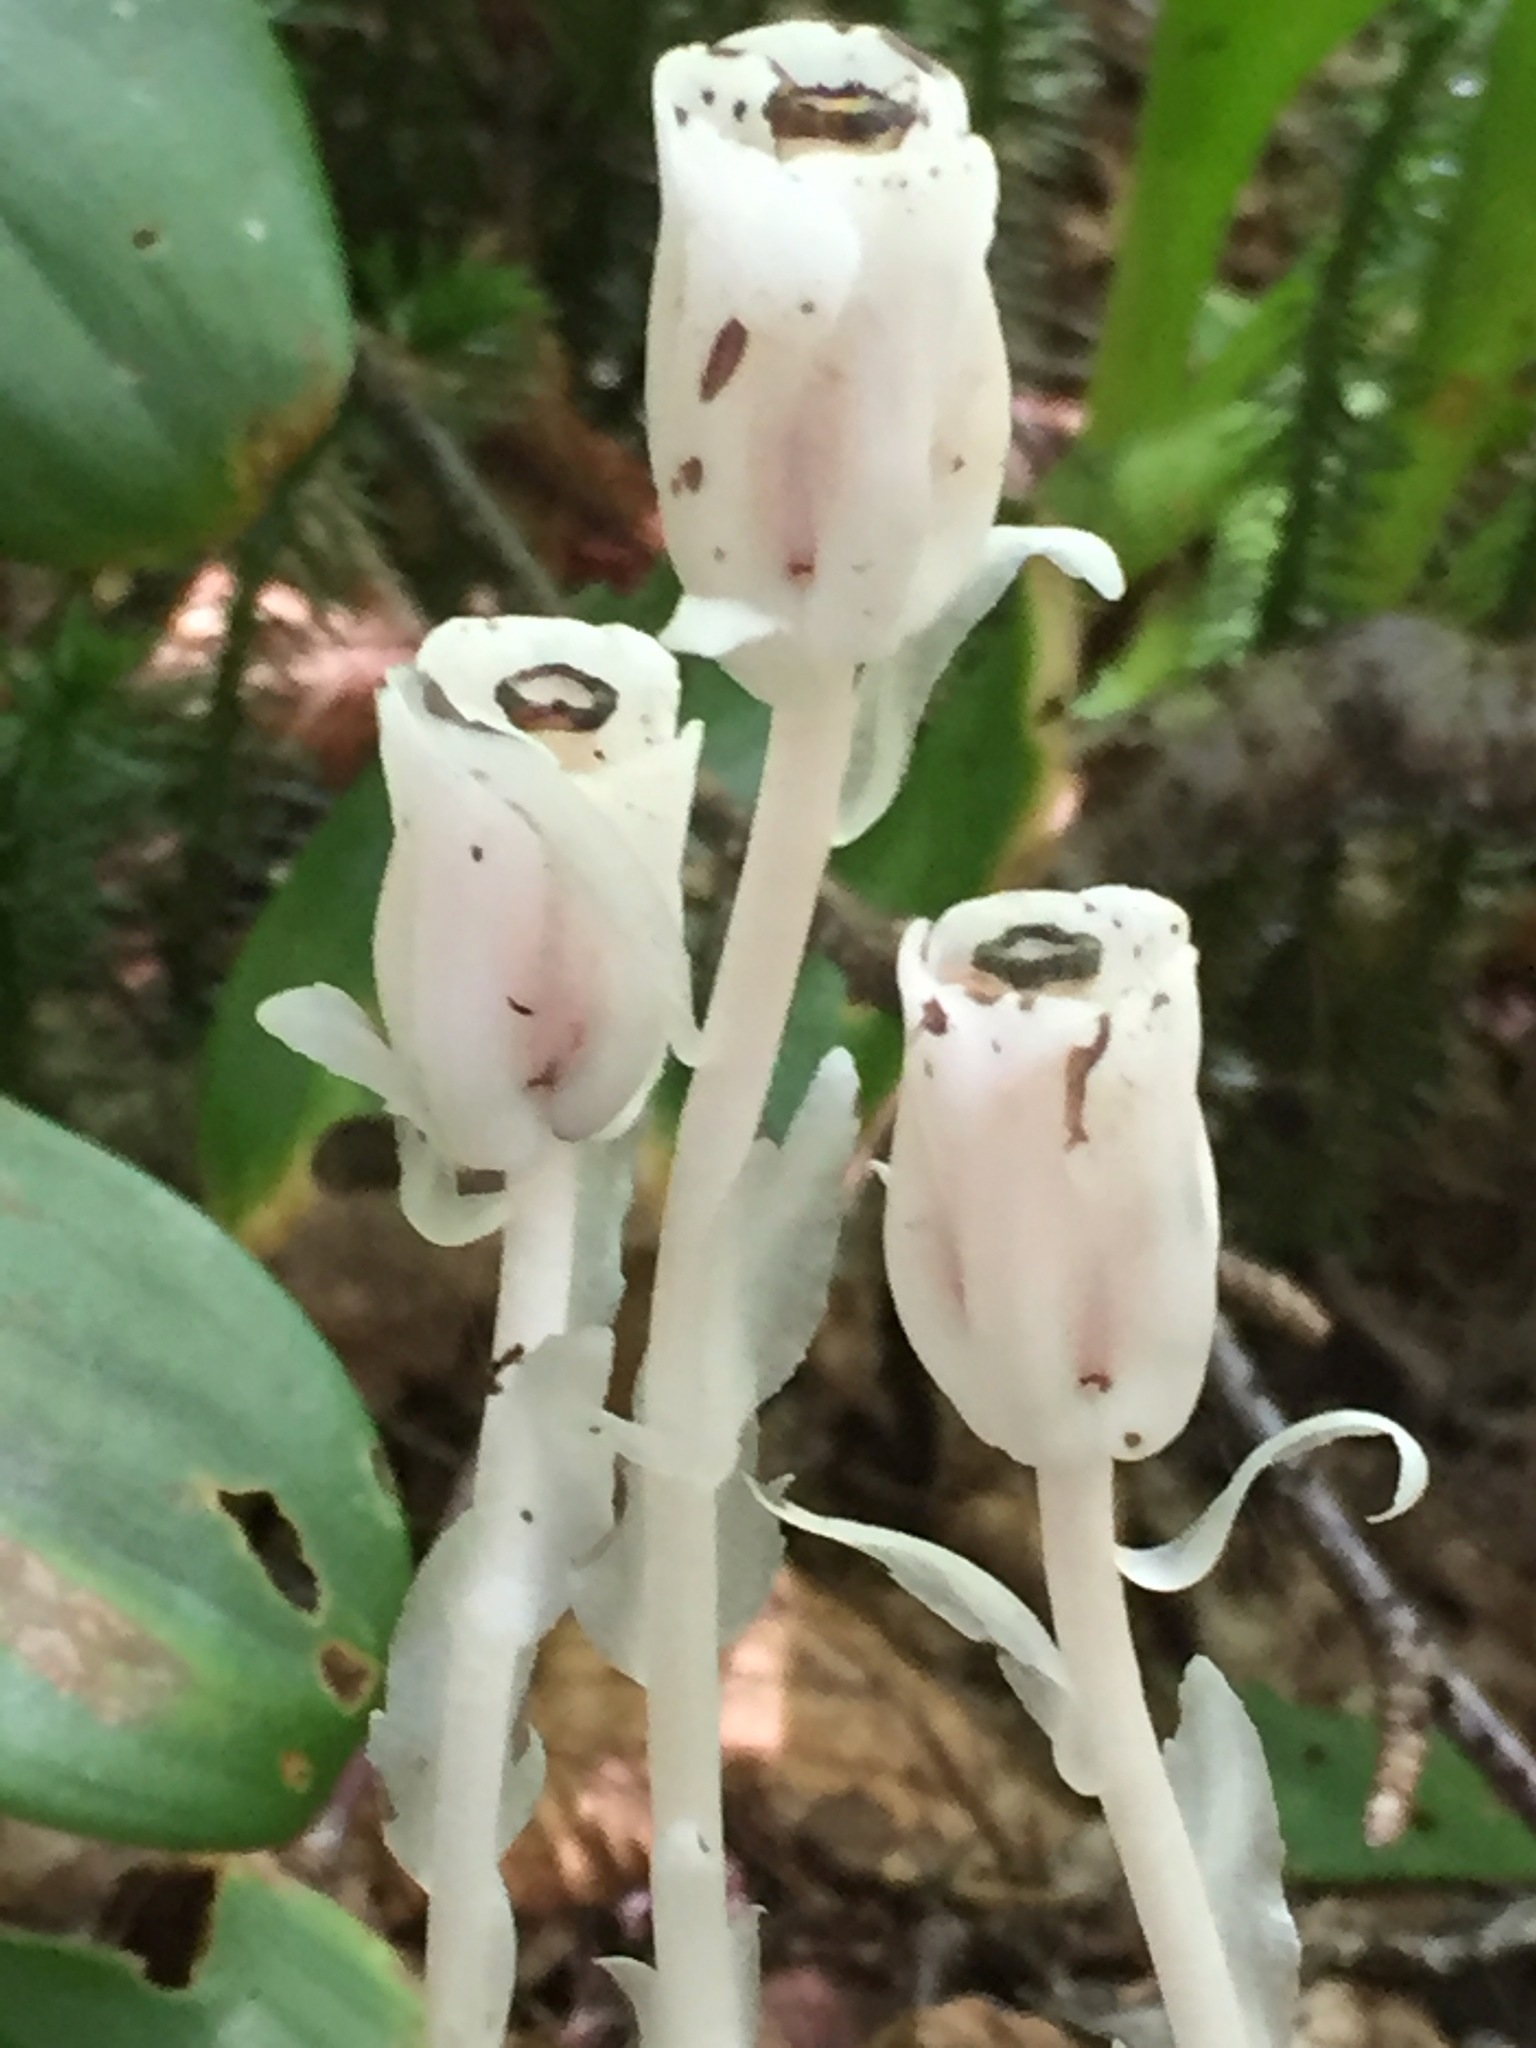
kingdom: Plantae
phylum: Tracheophyta
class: Magnoliopsida
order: Ericales
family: Ericaceae
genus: Monotropa
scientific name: Monotropa uniflora
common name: Convulsion root
